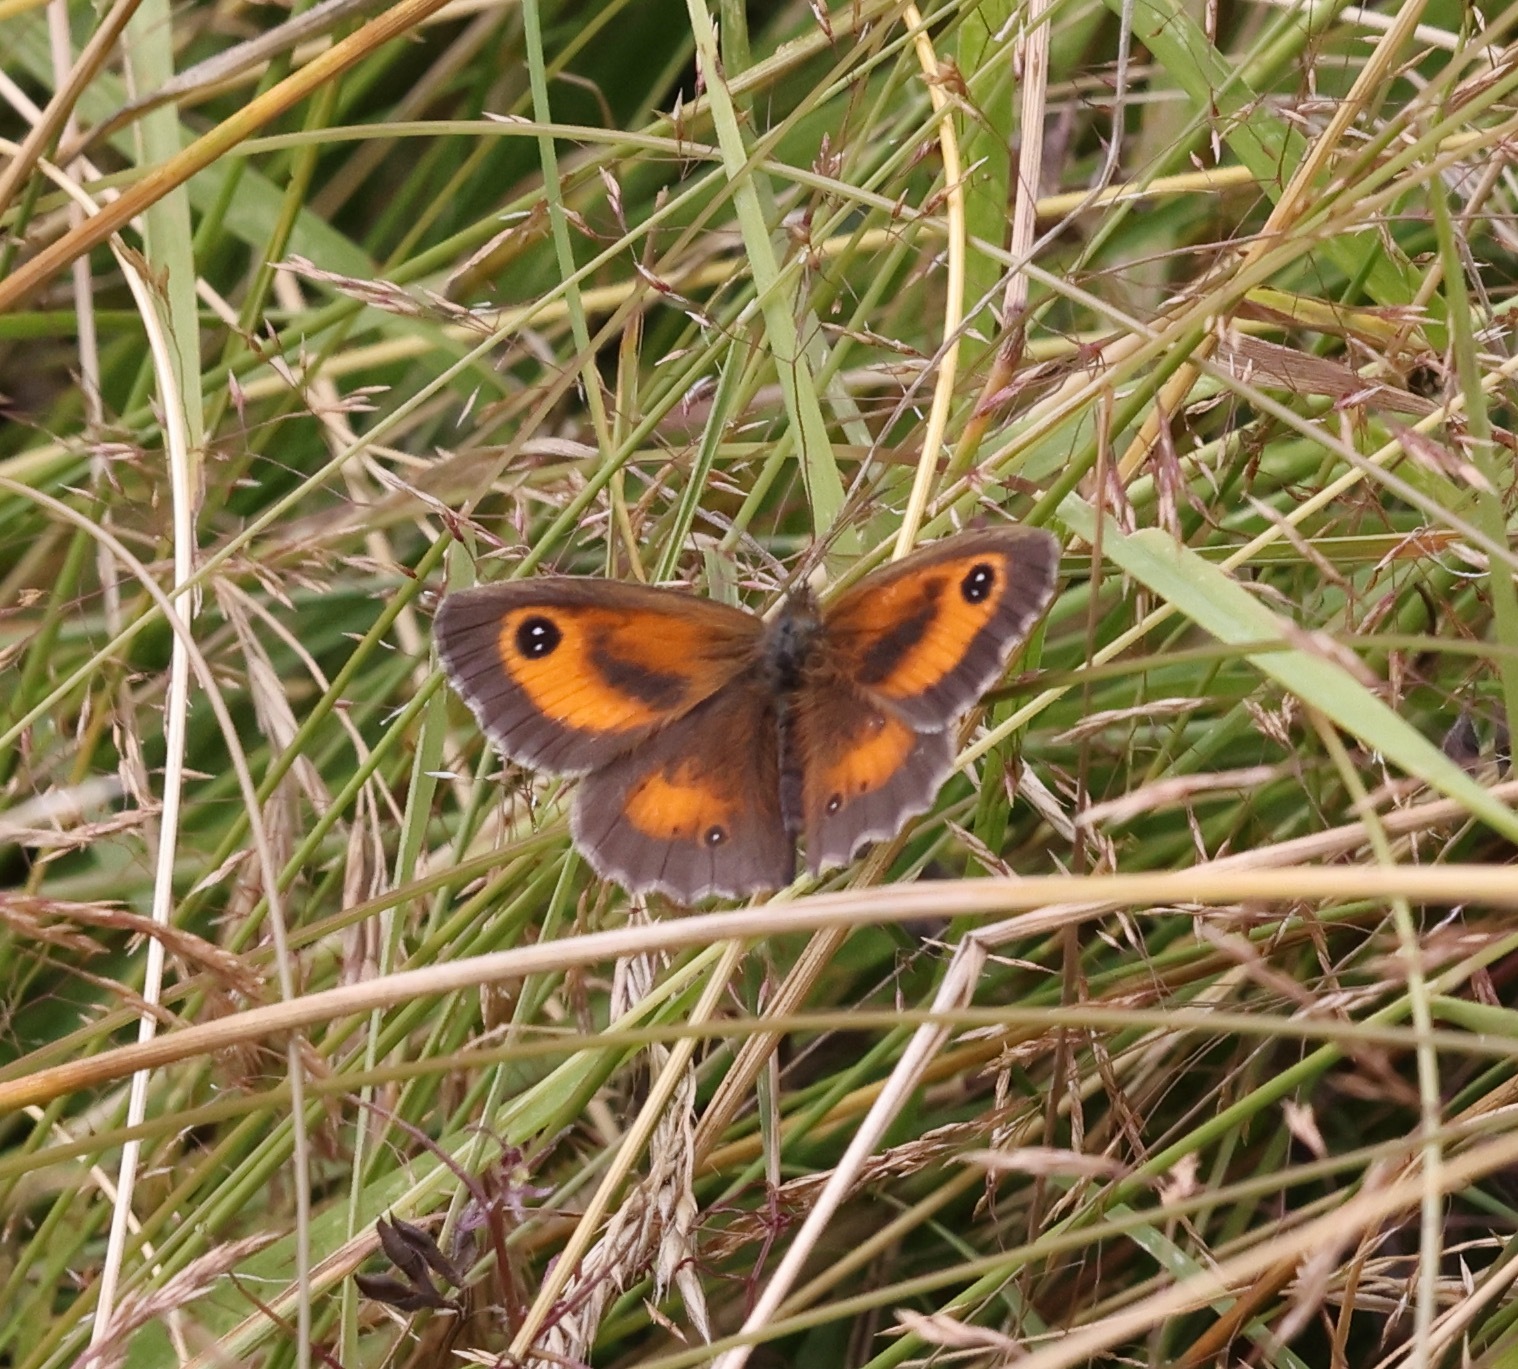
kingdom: Animalia
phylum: Arthropoda
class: Insecta
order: Lepidoptera
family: Nymphalidae
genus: Pyronia
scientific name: Pyronia tithonus
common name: Gatekeeper
